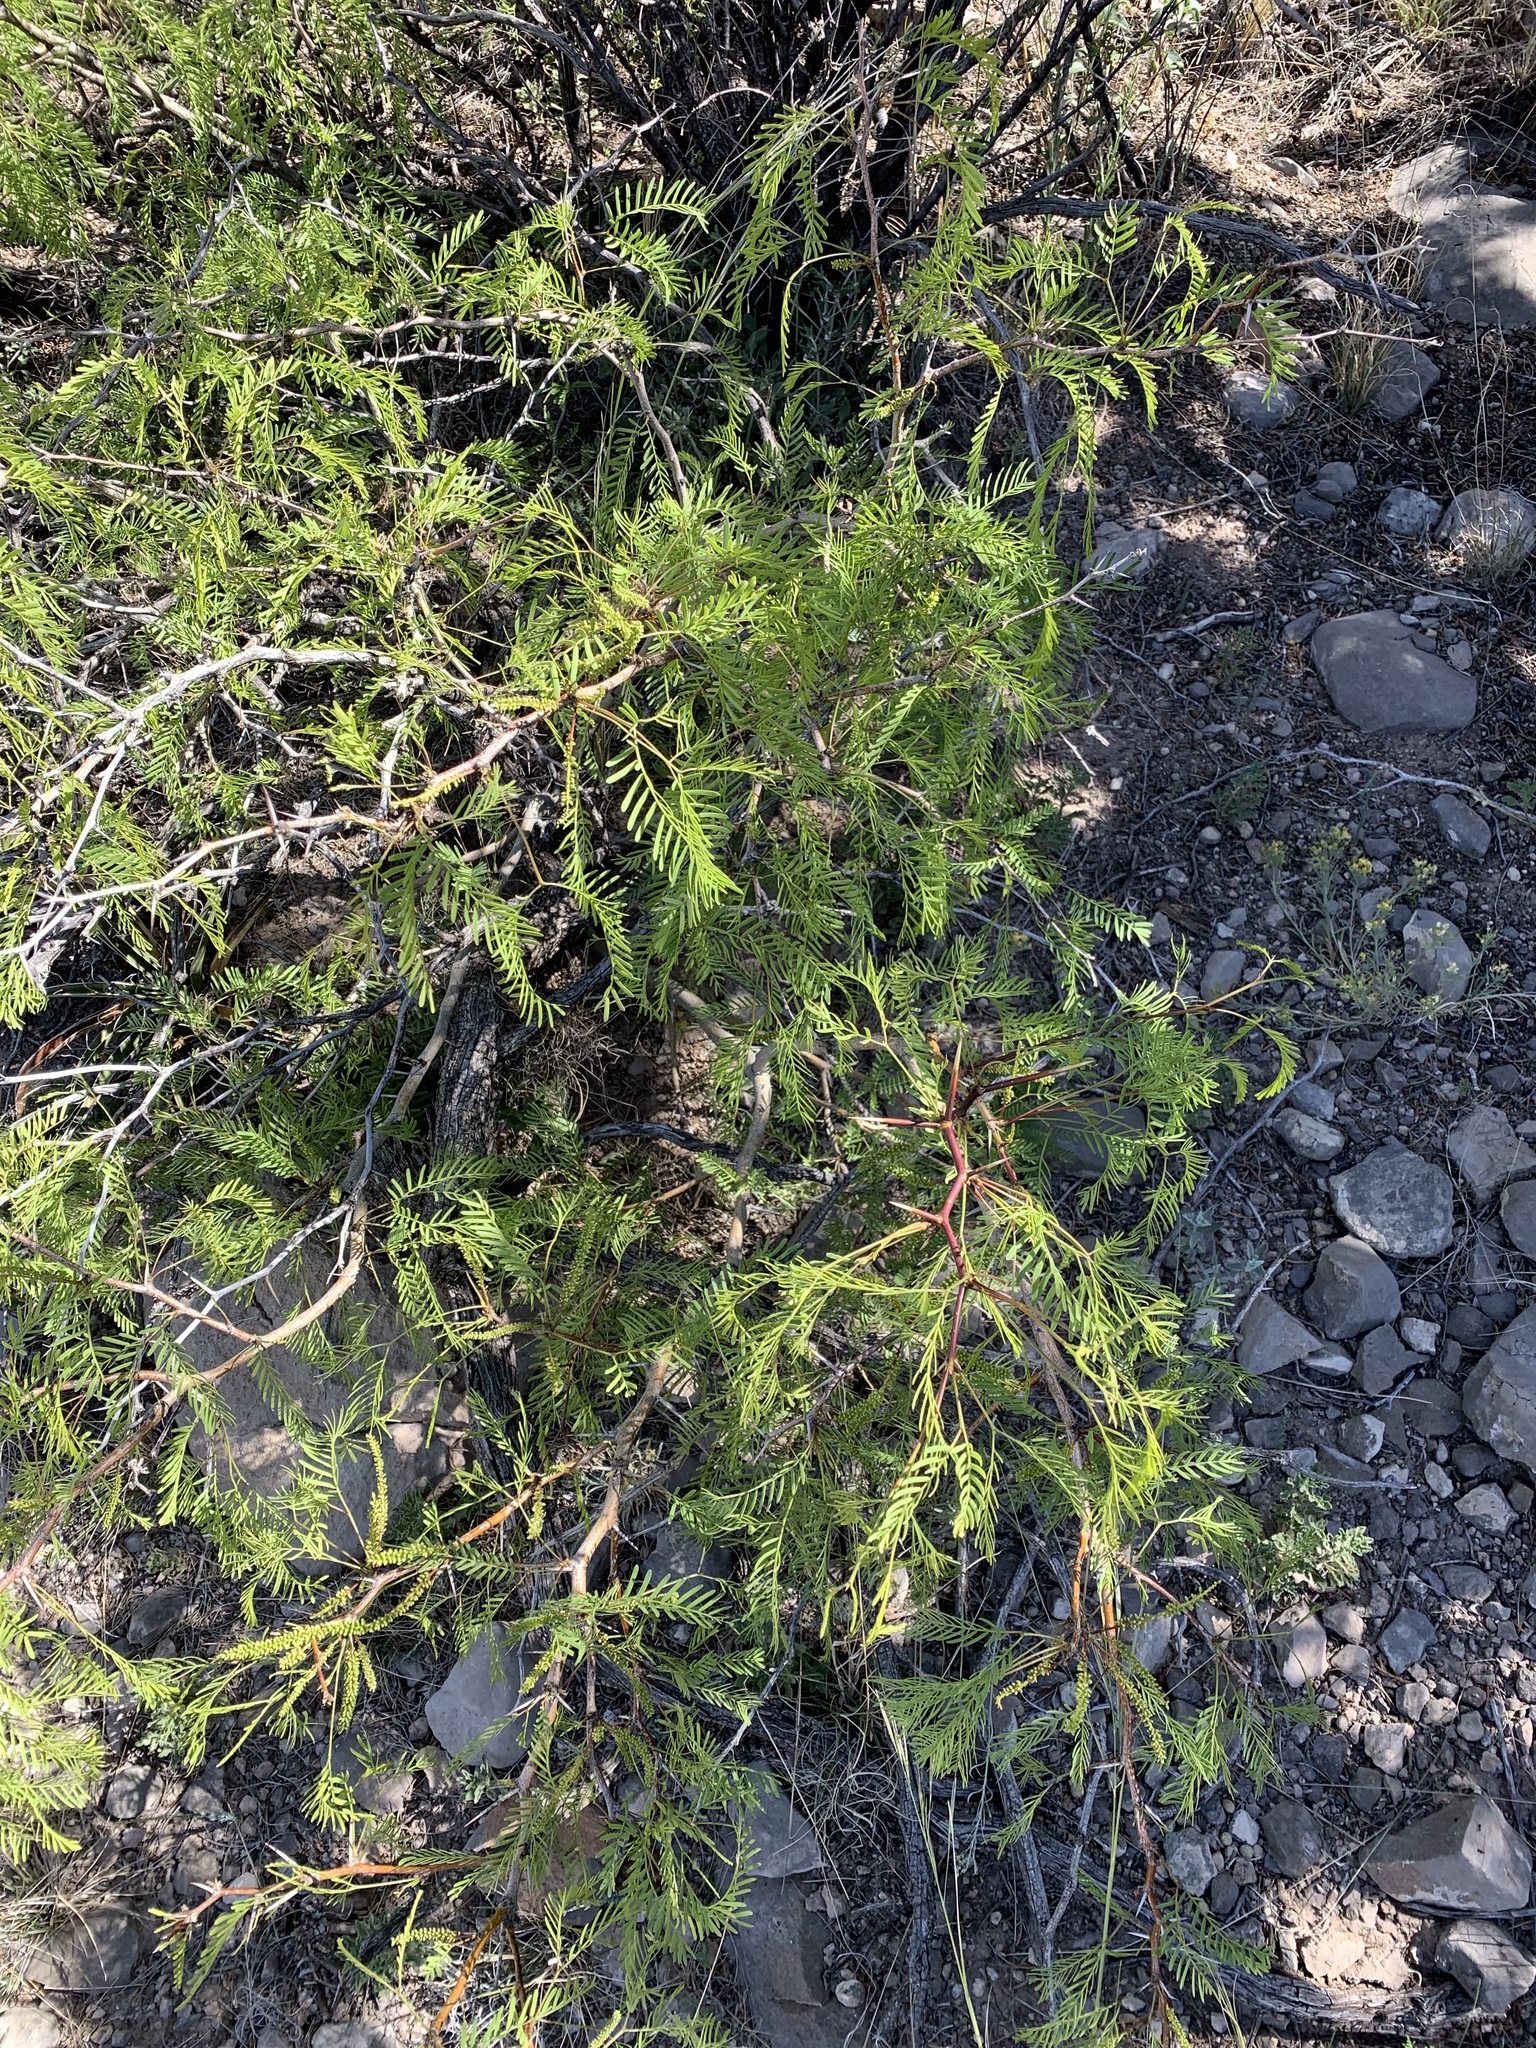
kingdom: Plantae
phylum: Tracheophyta
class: Magnoliopsida
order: Fabales
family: Fabaceae
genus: Prosopis
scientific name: Prosopis glandulosa
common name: Honey mesquite
